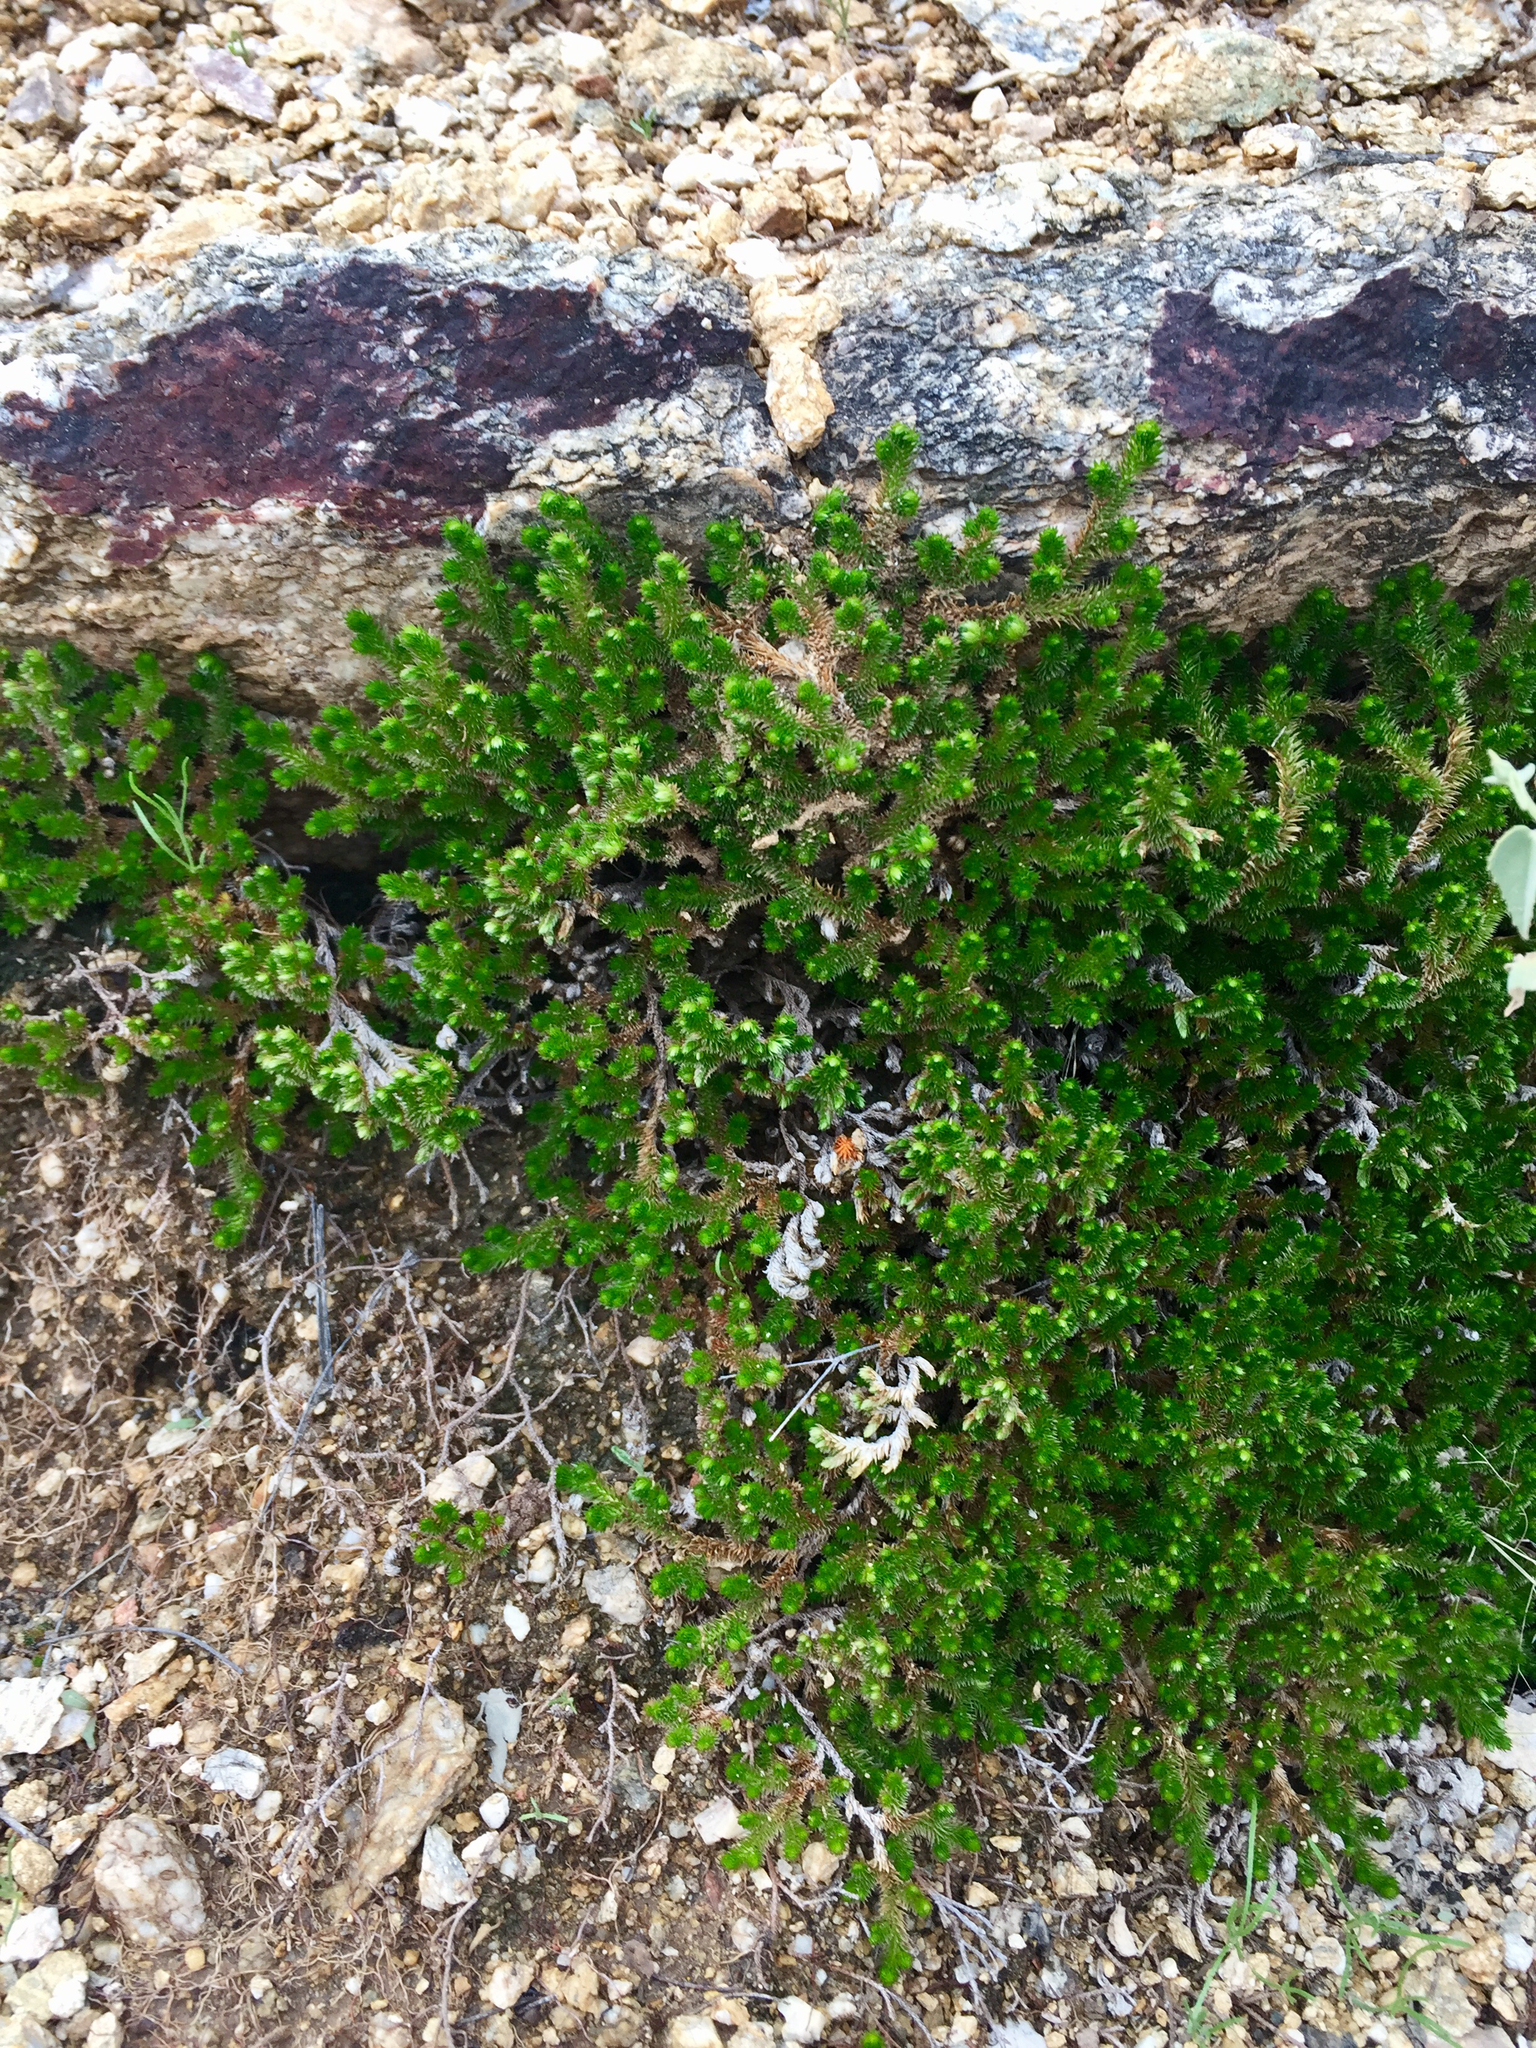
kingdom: Plantae
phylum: Tracheophyta
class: Lycopodiopsida
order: Selaginellales
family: Selaginellaceae
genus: Selaginella
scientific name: Selaginella arizonica
